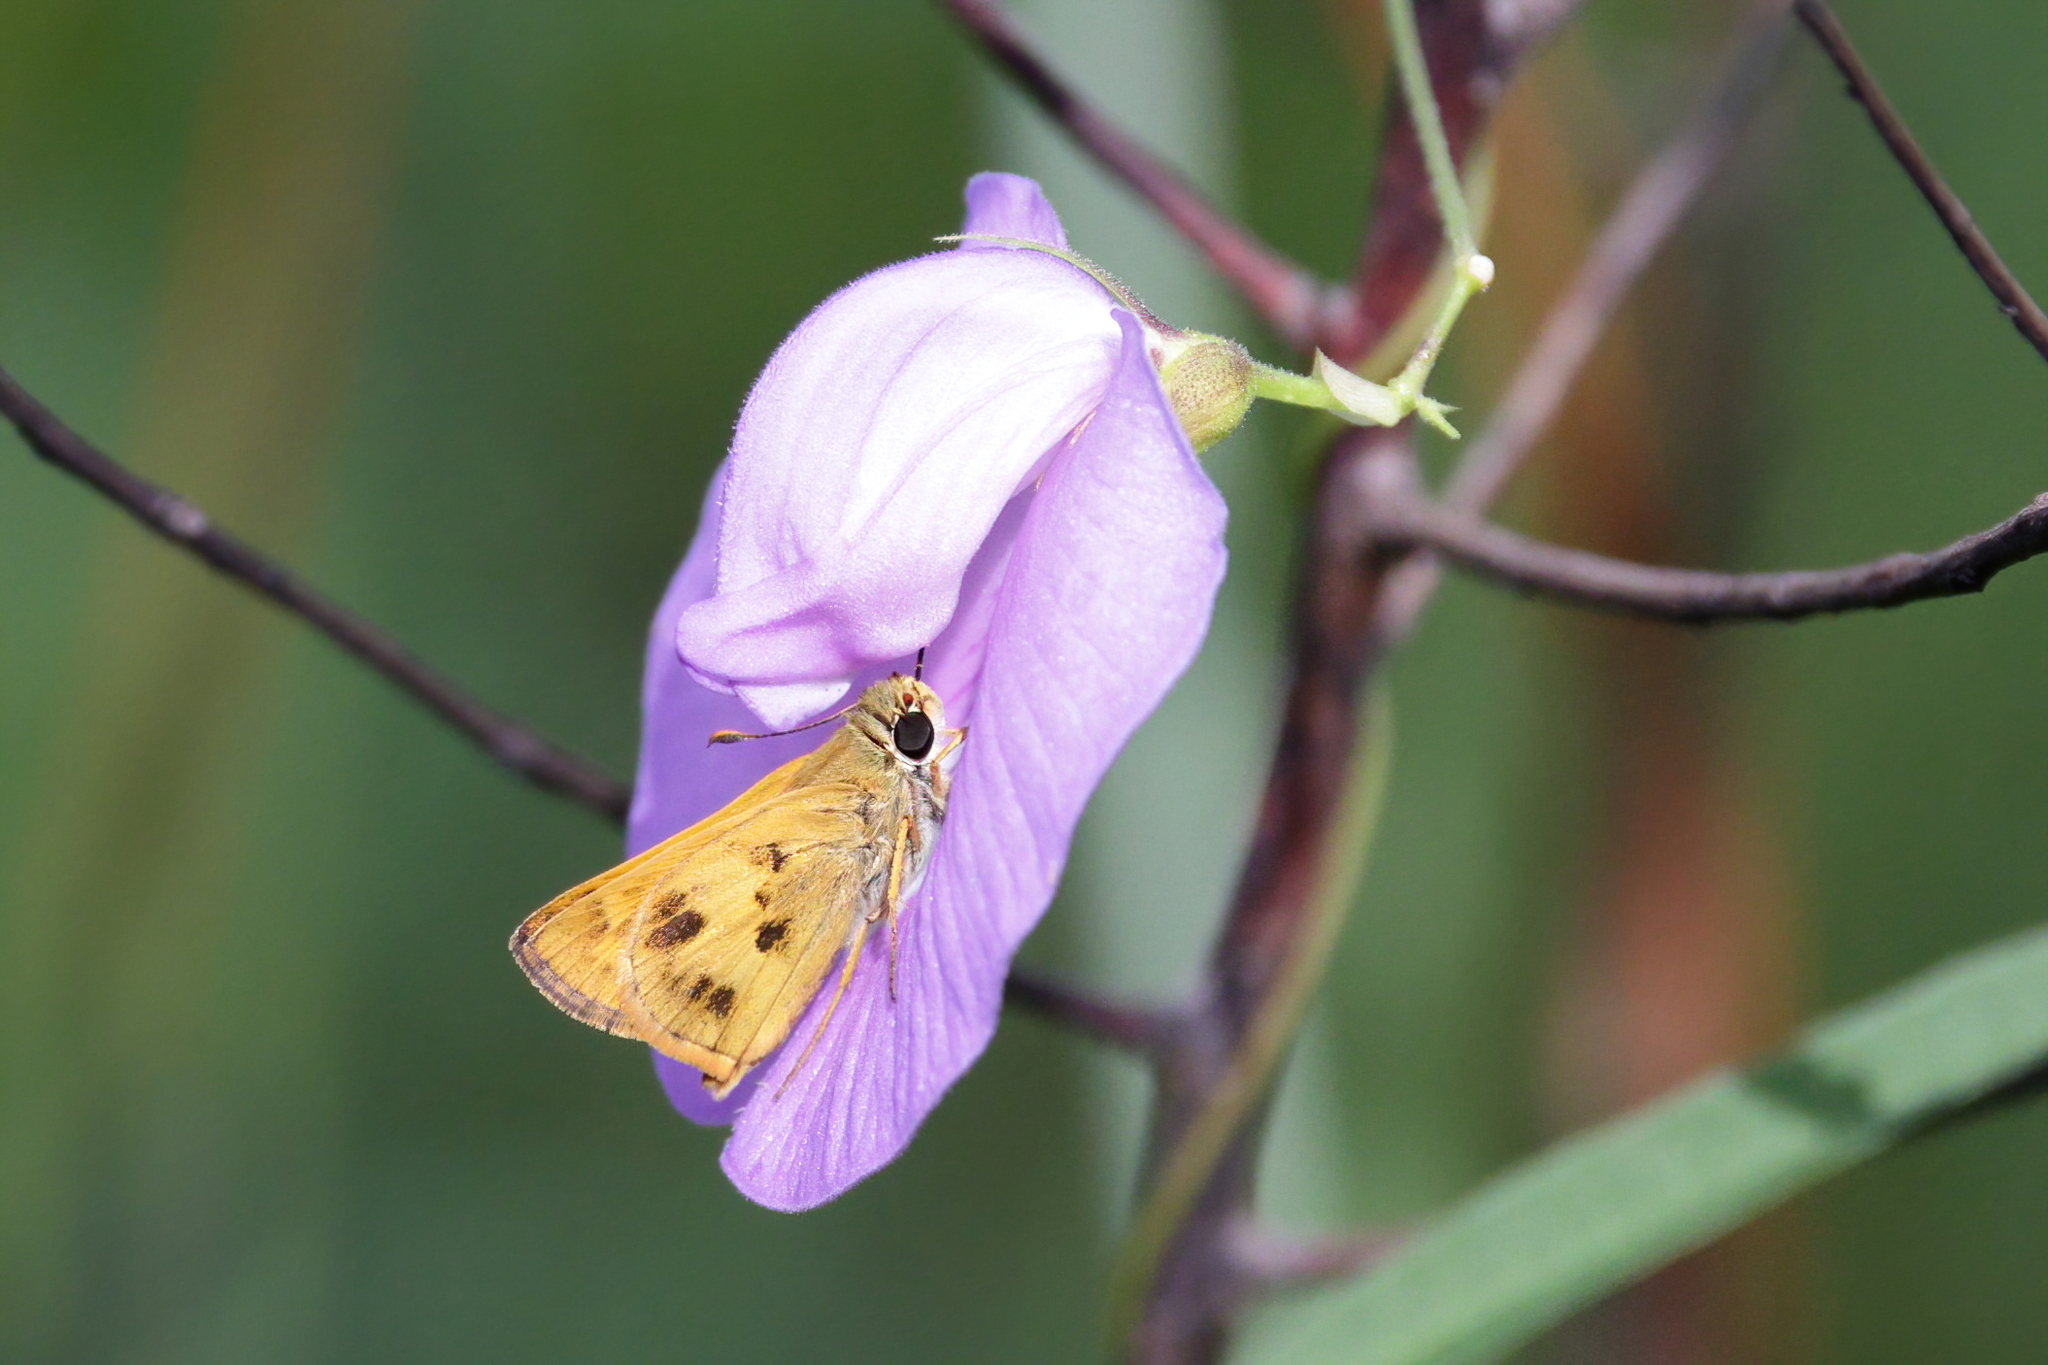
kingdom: Animalia
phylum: Arthropoda
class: Insecta
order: Lepidoptera
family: Hesperiidae
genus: Polites
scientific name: Polites vibex
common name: Whirlabout
